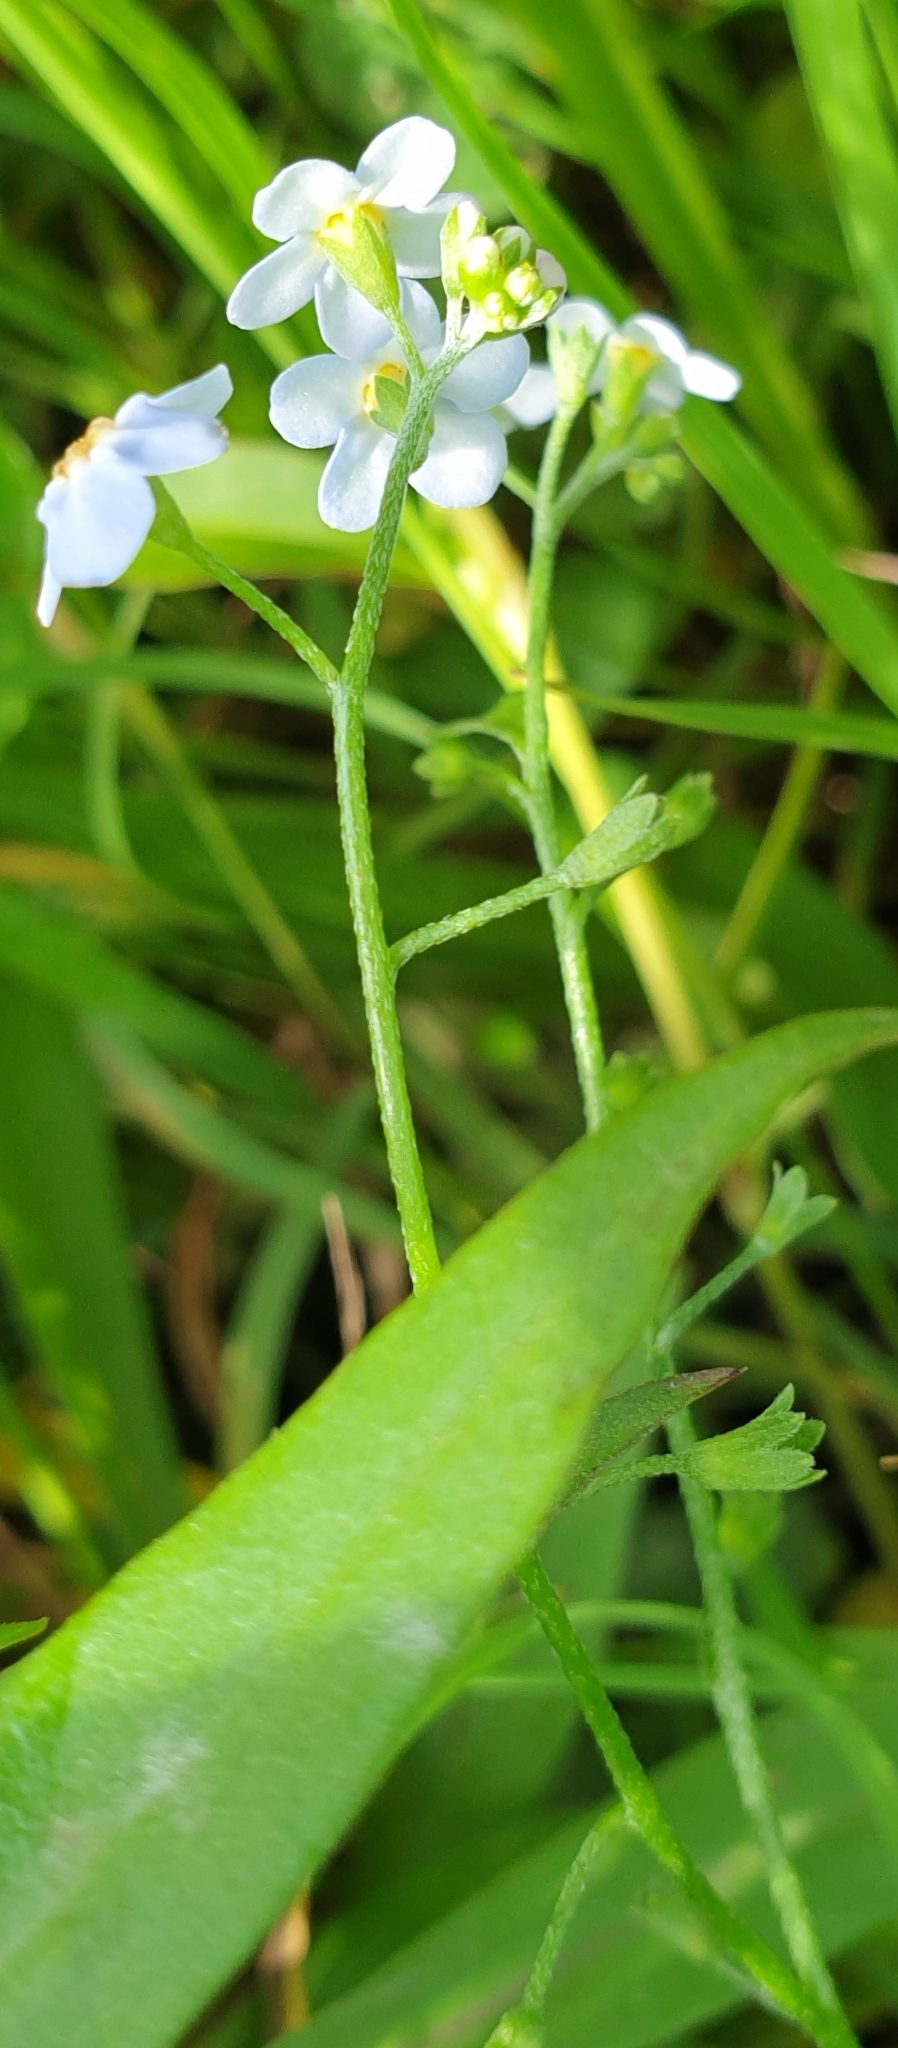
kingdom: Plantae
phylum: Tracheophyta
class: Magnoliopsida
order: Boraginales
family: Boraginaceae
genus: Myosotis
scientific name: Myosotis scorpioides
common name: Water forget-me-not
